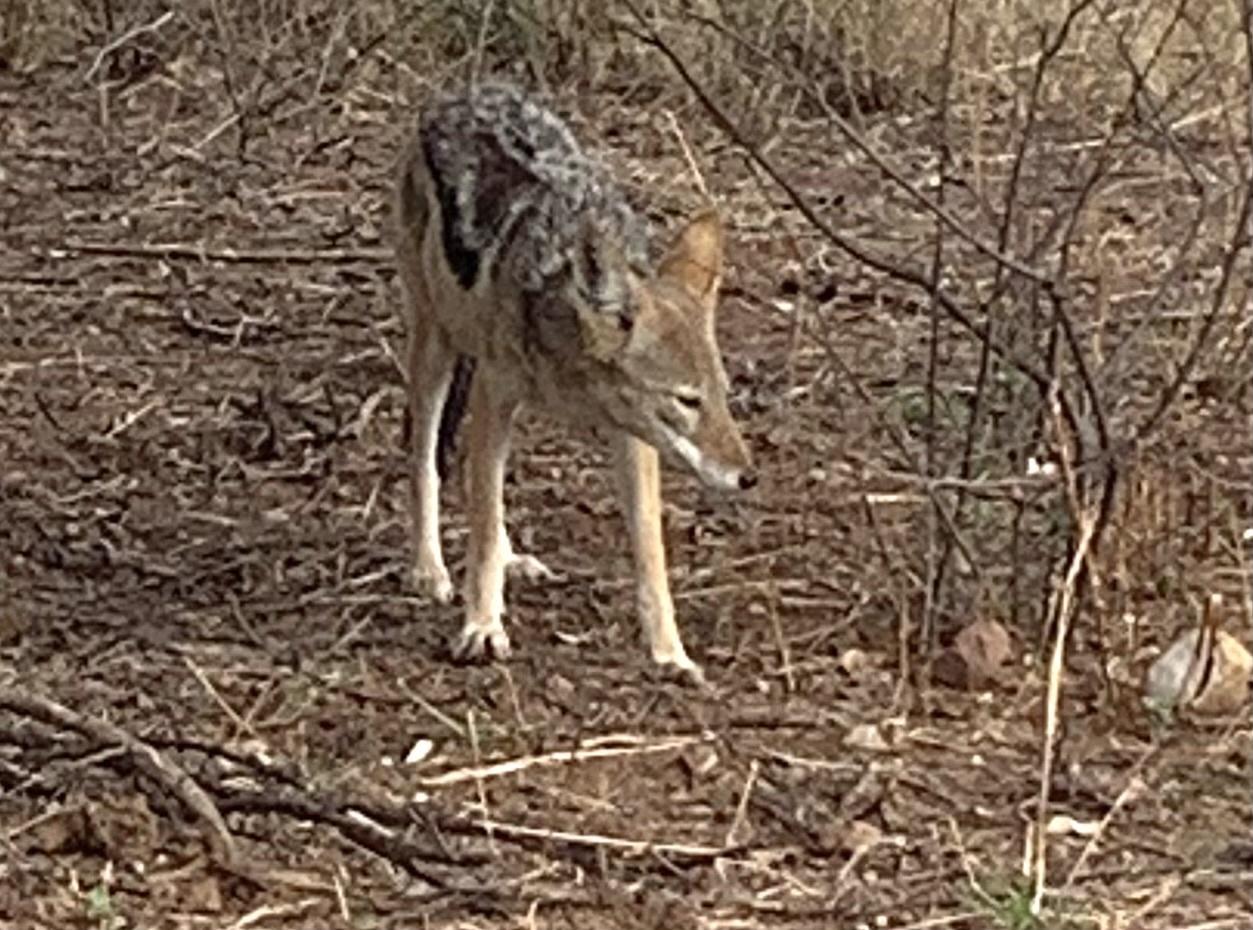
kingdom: Animalia
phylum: Chordata
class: Mammalia
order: Carnivora
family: Canidae
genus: Lupulella
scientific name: Lupulella
